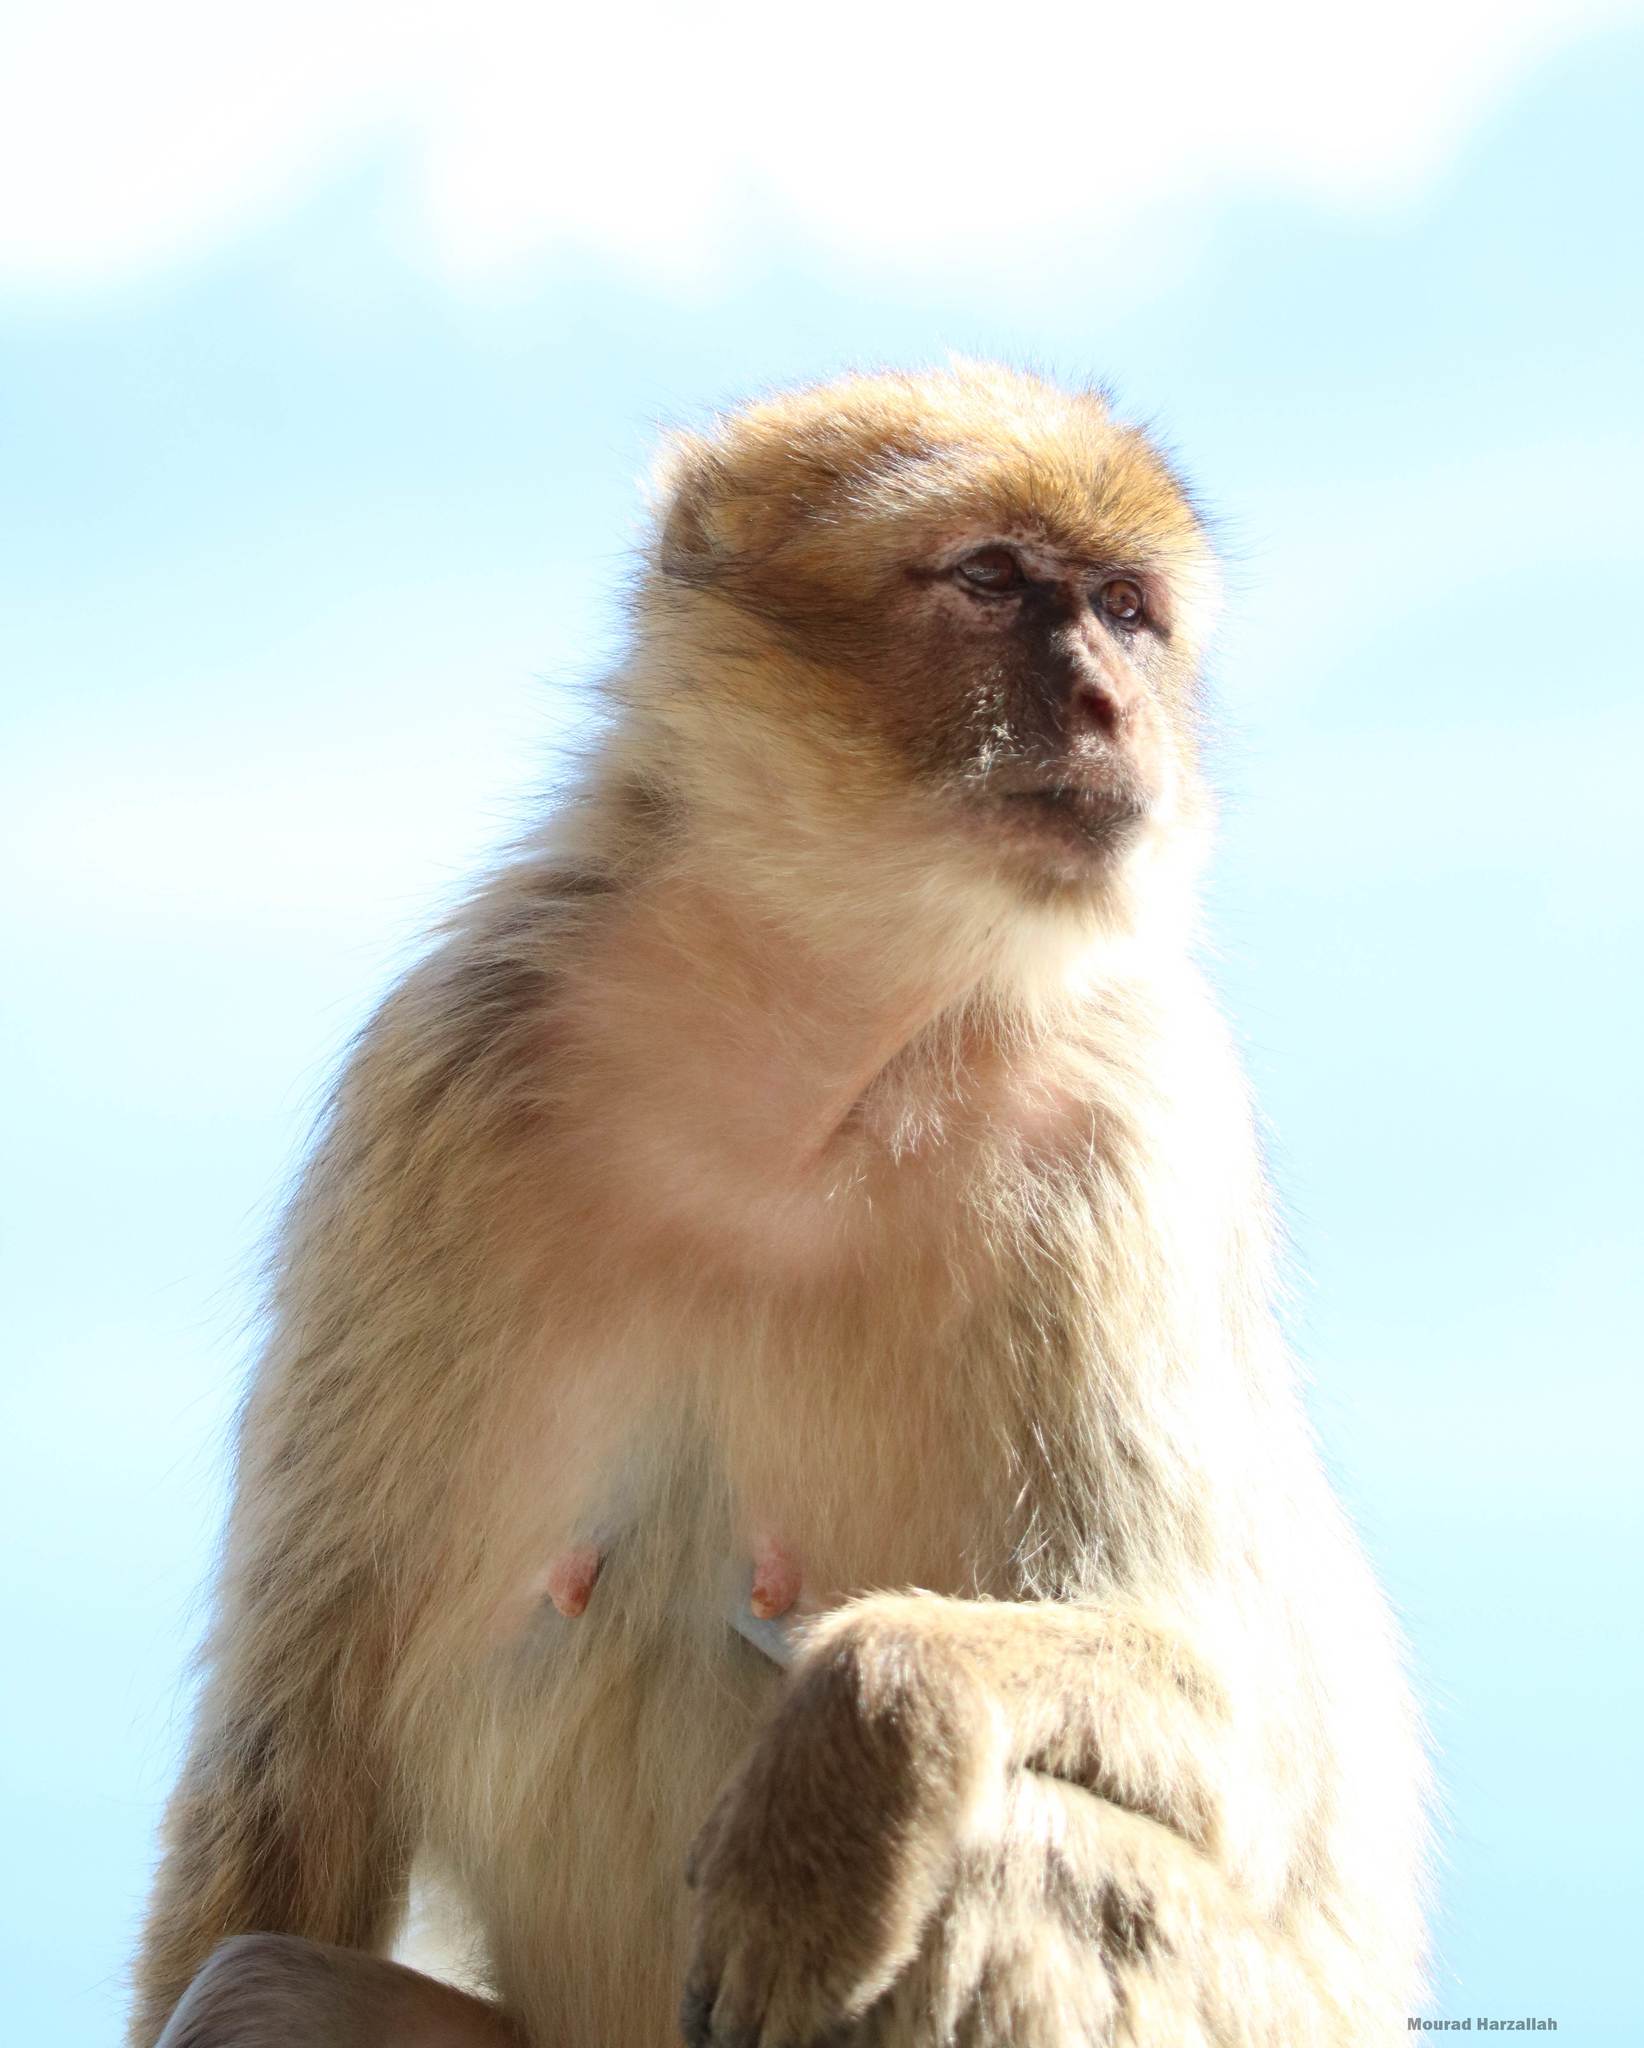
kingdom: Animalia
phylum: Chordata
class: Mammalia
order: Primates
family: Cercopithecidae
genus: Macaca
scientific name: Macaca sylvanus
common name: Barbary macaque
